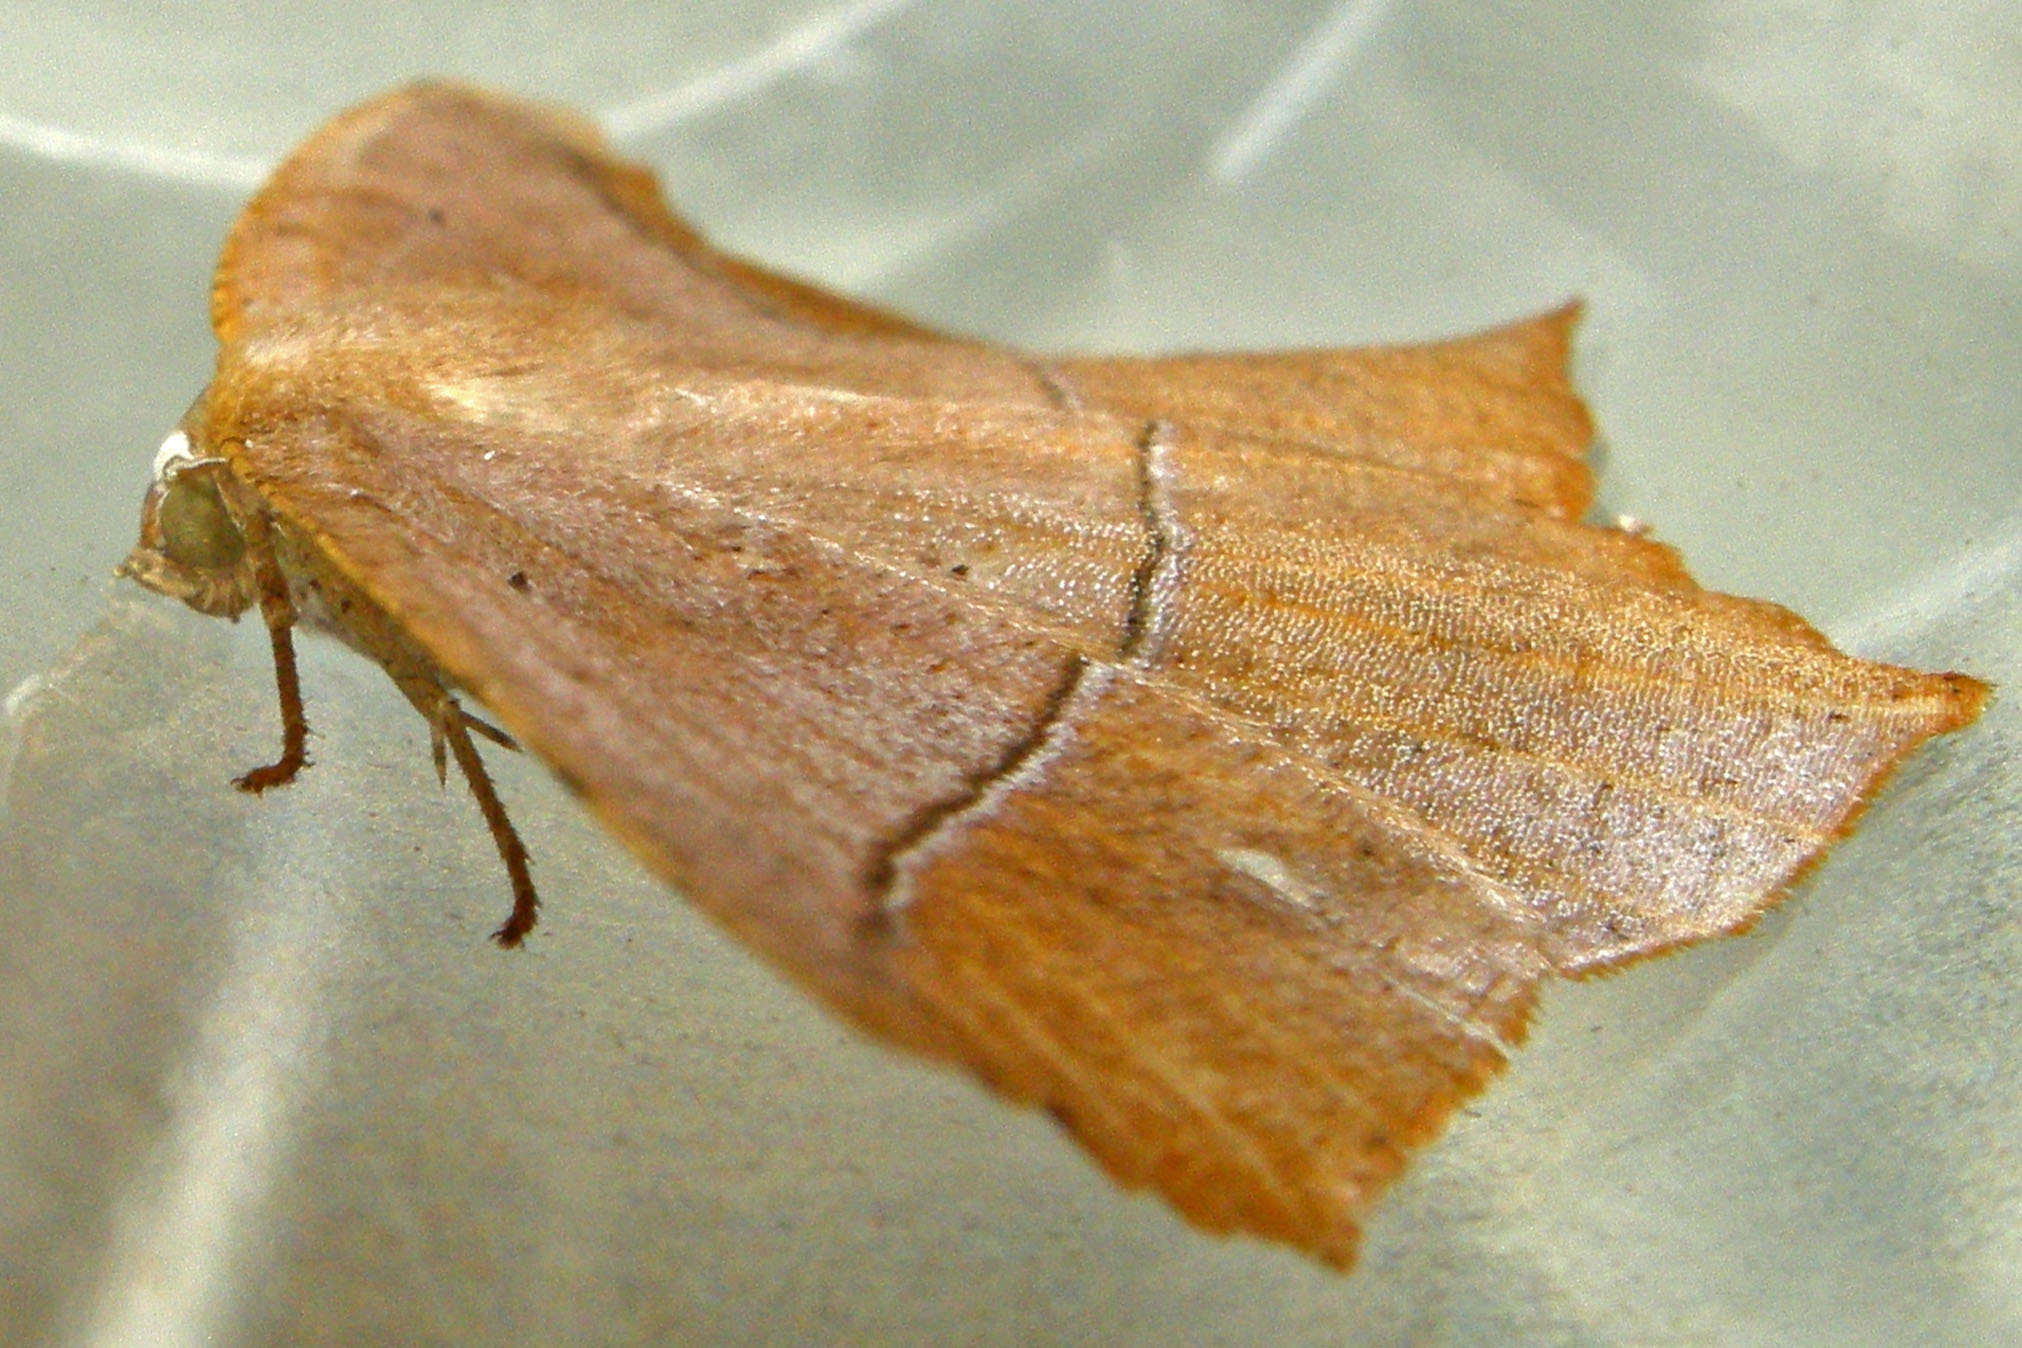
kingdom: Animalia
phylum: Arthropoda
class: Insecta
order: Lepidoptera
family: Geometridae
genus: Prochoerodes
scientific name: Prochoerodes lineola
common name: Large maple spanworm
